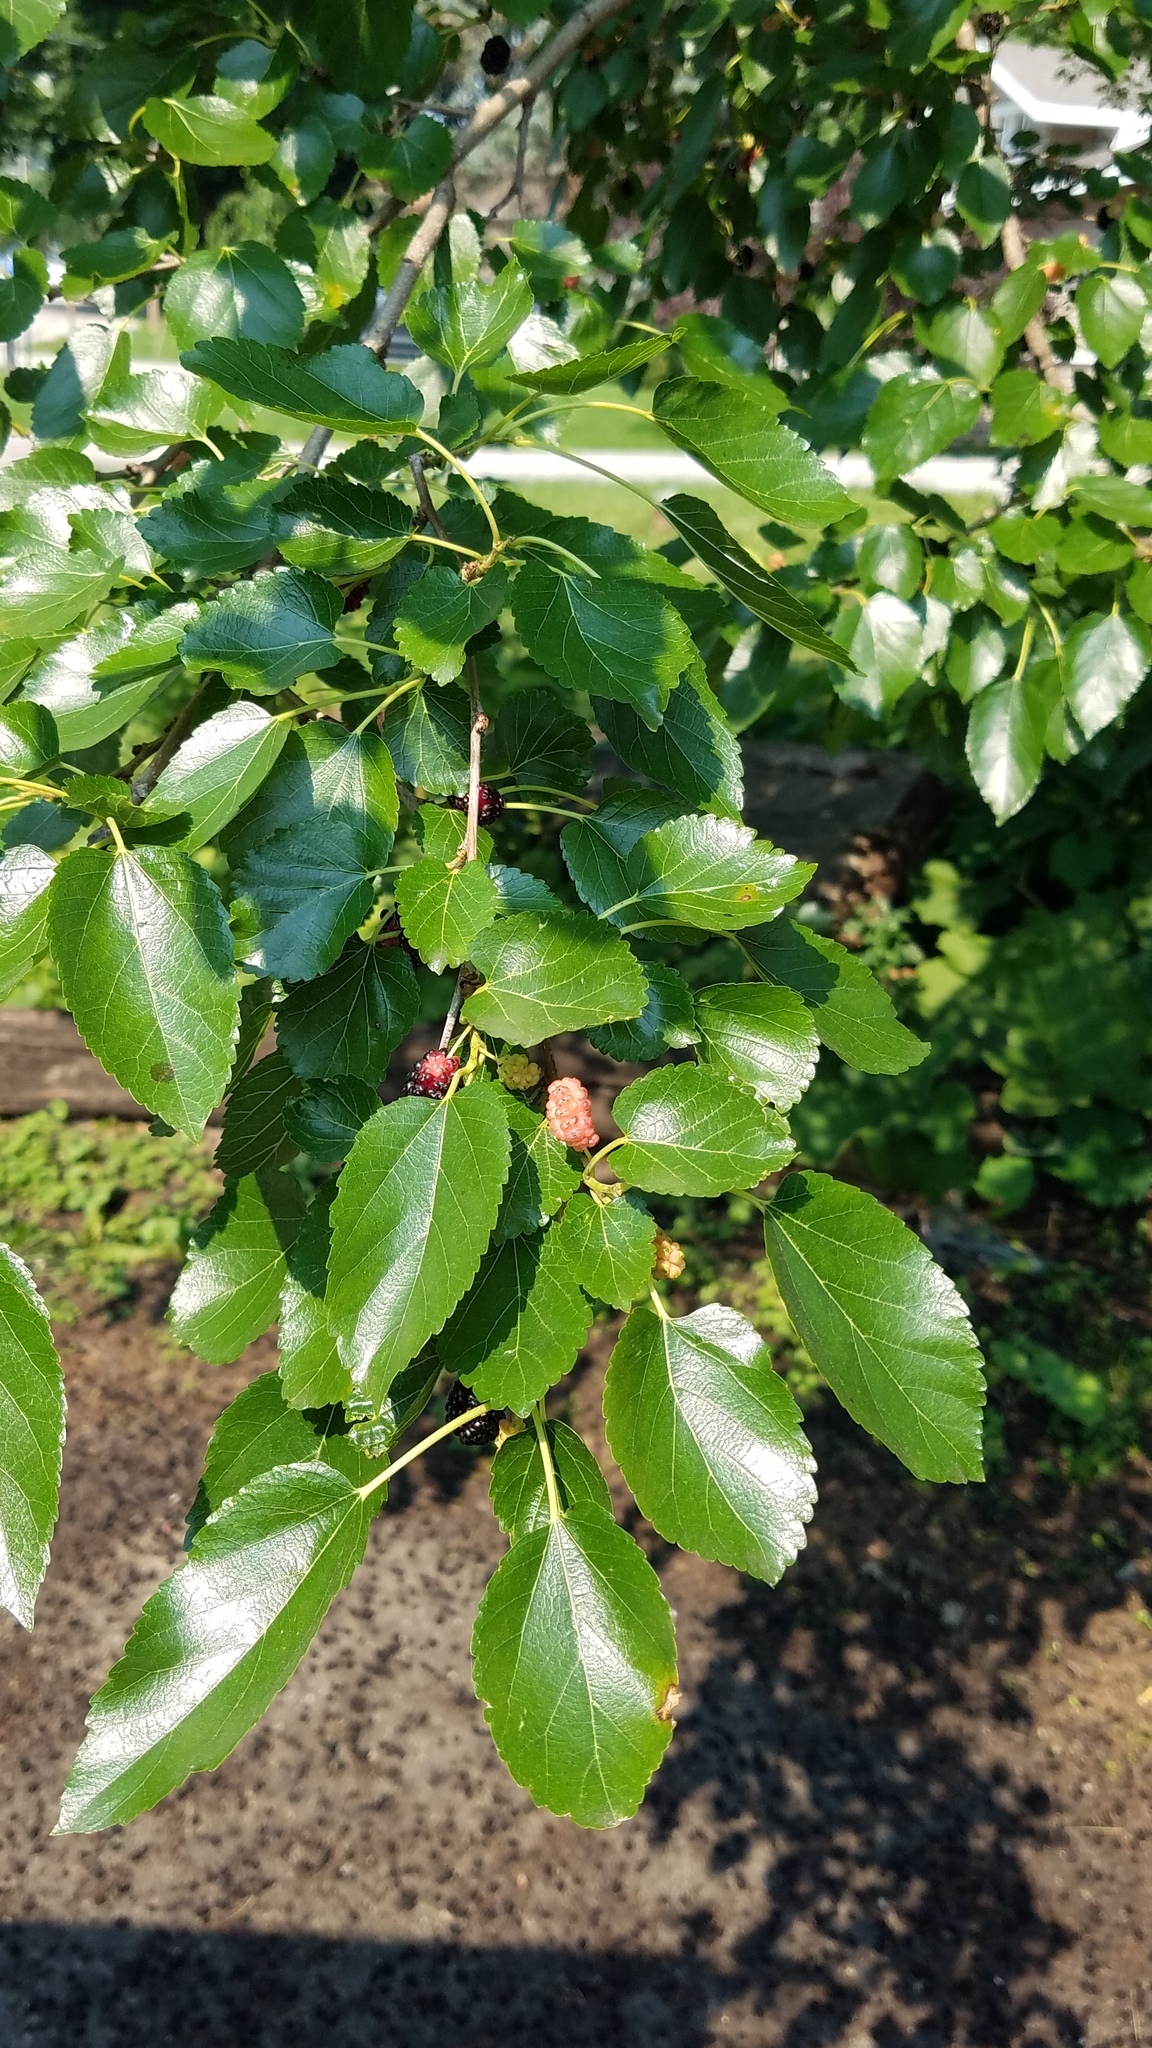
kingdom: Plantae
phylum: Tracheophyta
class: Magnoliopsida
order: Rosales
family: Moraceae
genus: Morus
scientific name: Morus alba
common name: White mulberry
